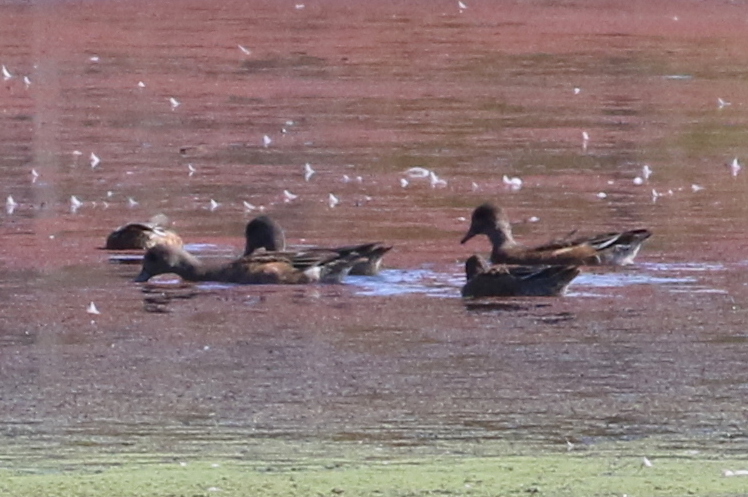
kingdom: Animalia
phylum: Chordata
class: Aves
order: Anseriformes
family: Anatidae
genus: Mareca
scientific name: Mareca americana
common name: American wigeon
